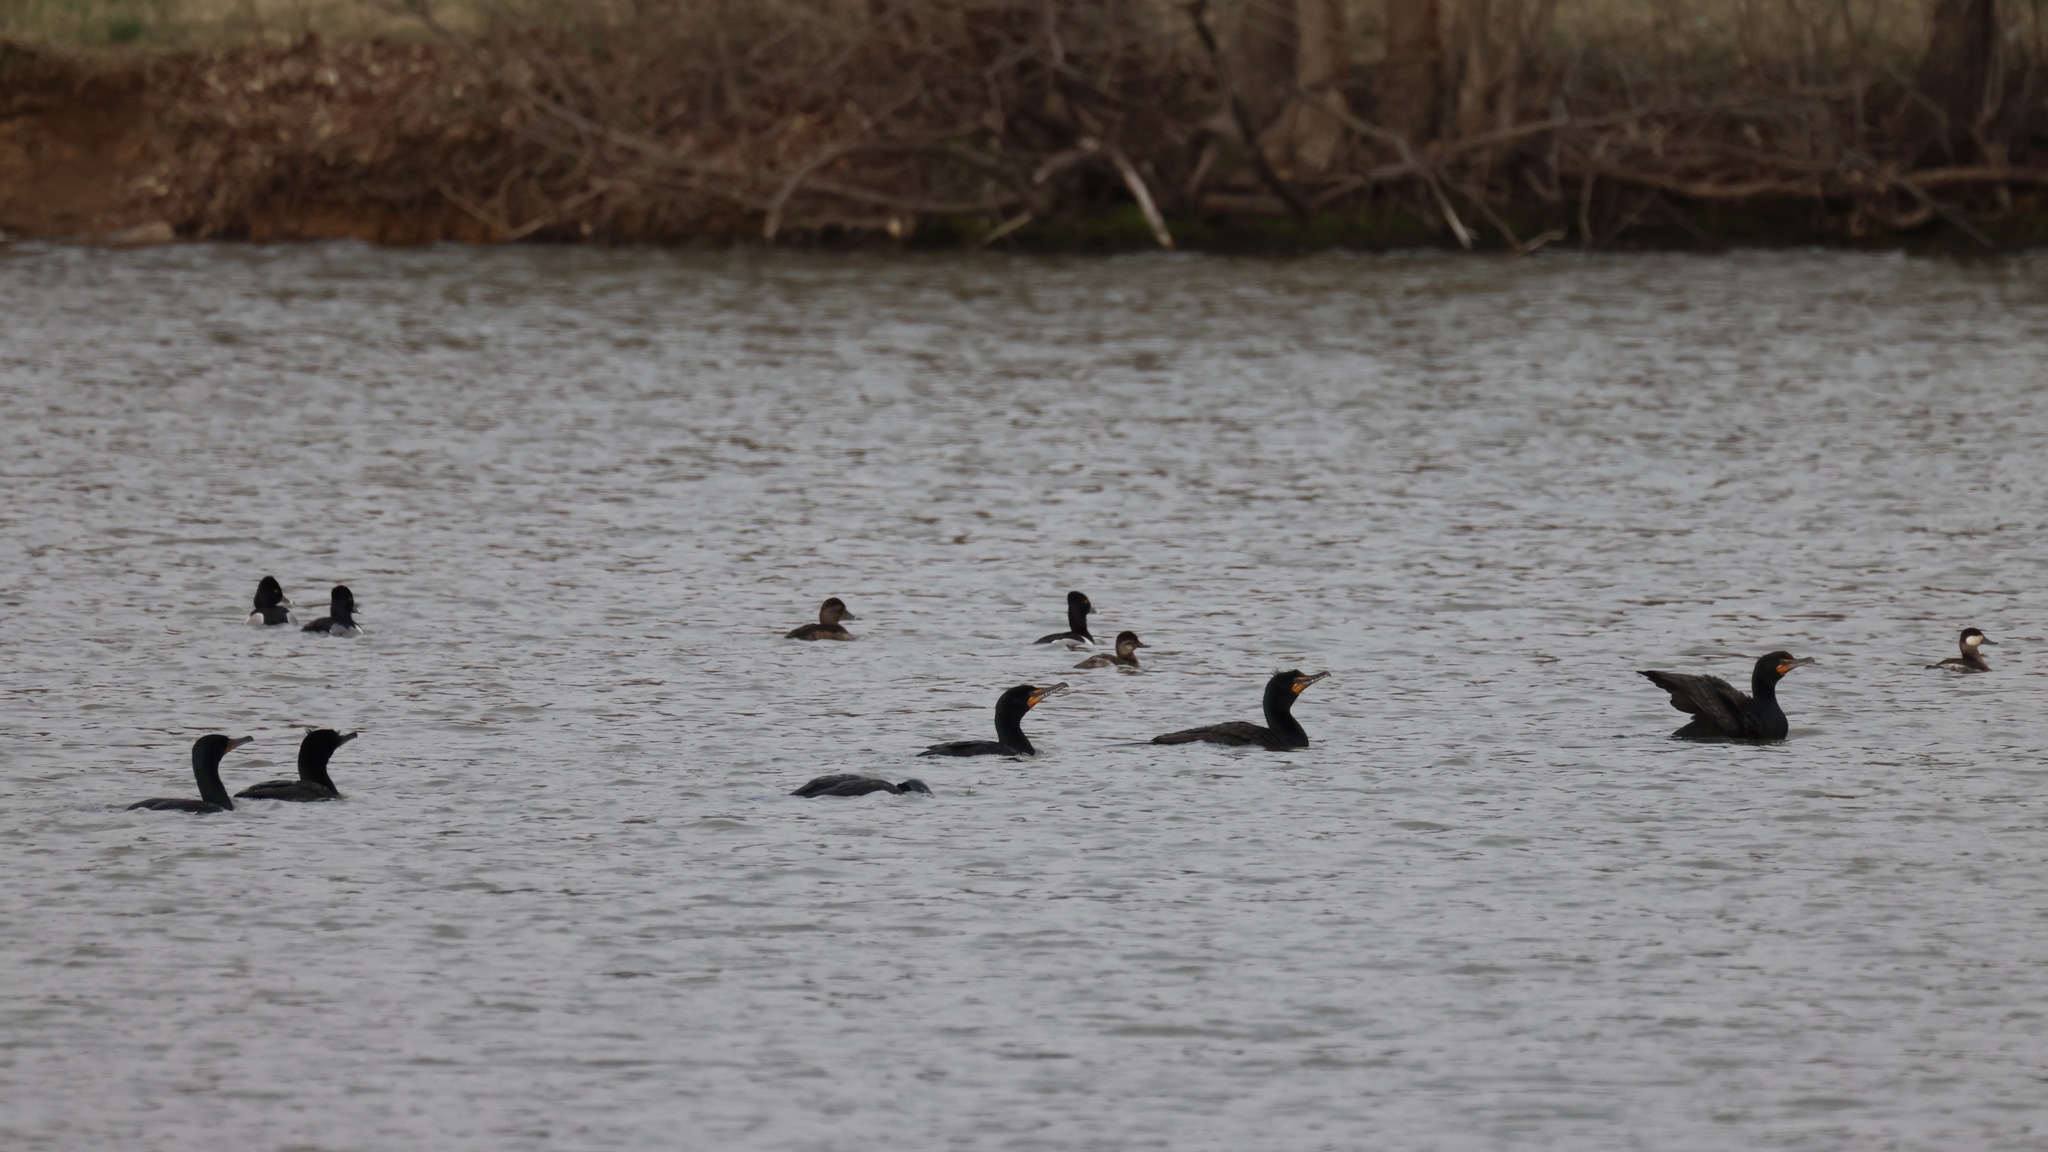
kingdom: Animalia
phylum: Chordata
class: Aves
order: Anseriformes
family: Anatidae
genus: Aythya
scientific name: Aythya collaris
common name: Ring-necked duck
